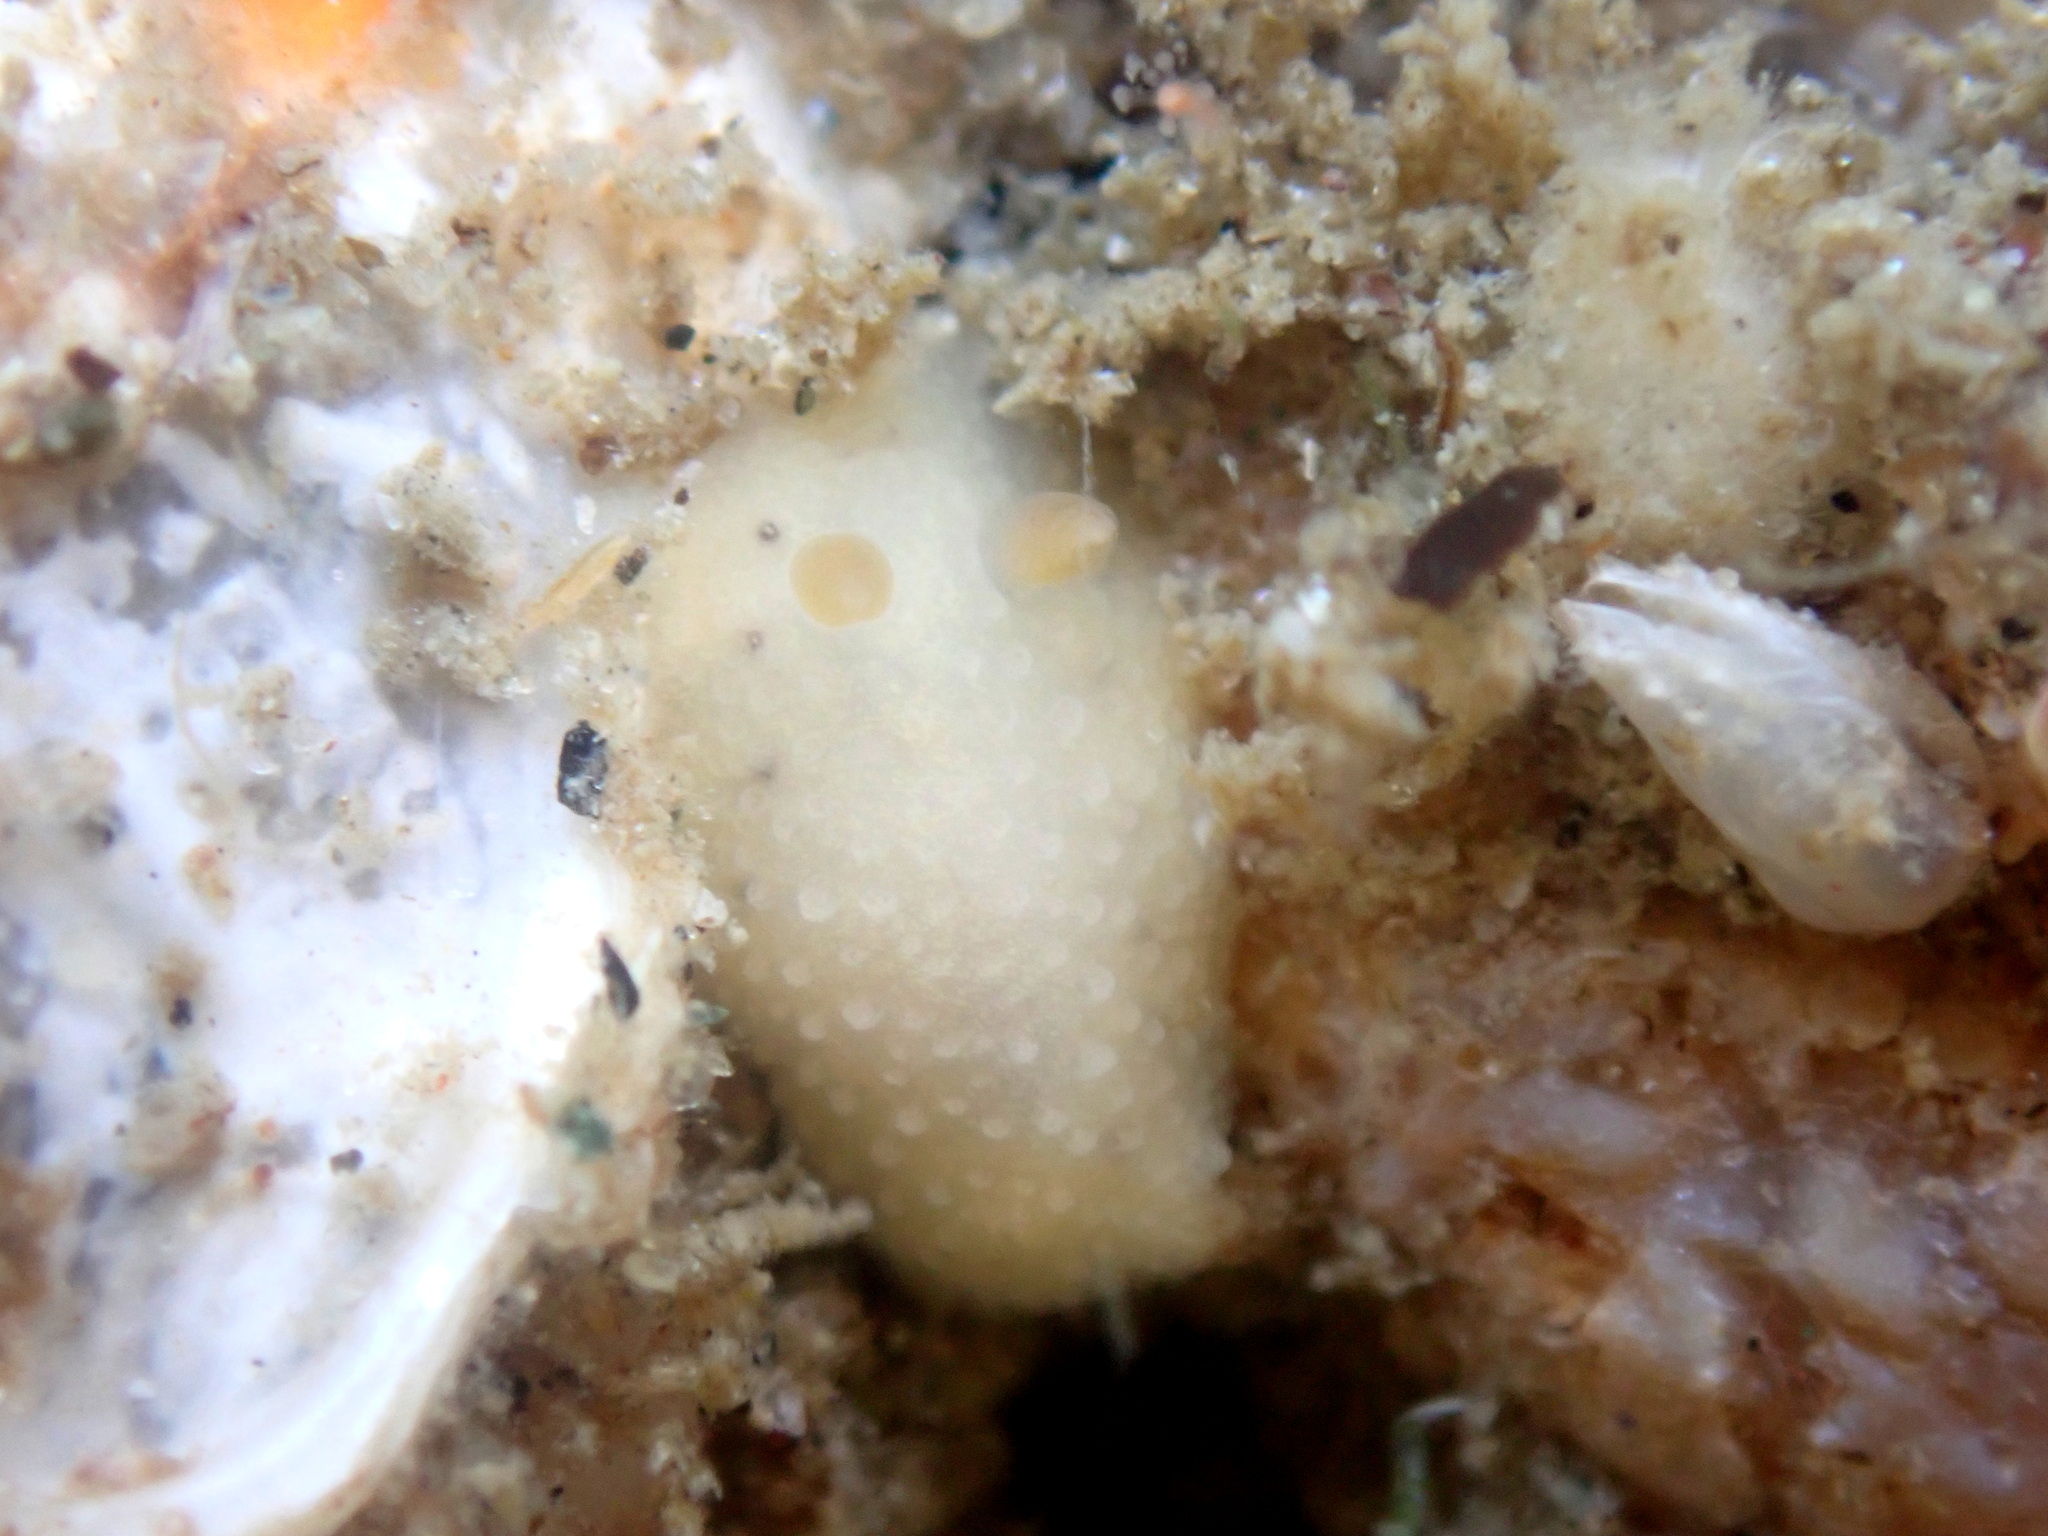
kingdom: Animalia
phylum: Mollusca
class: Gastropoda
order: Nudibranchia
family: Cadlinidae
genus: Cadlina
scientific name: Cadlina sparsa
